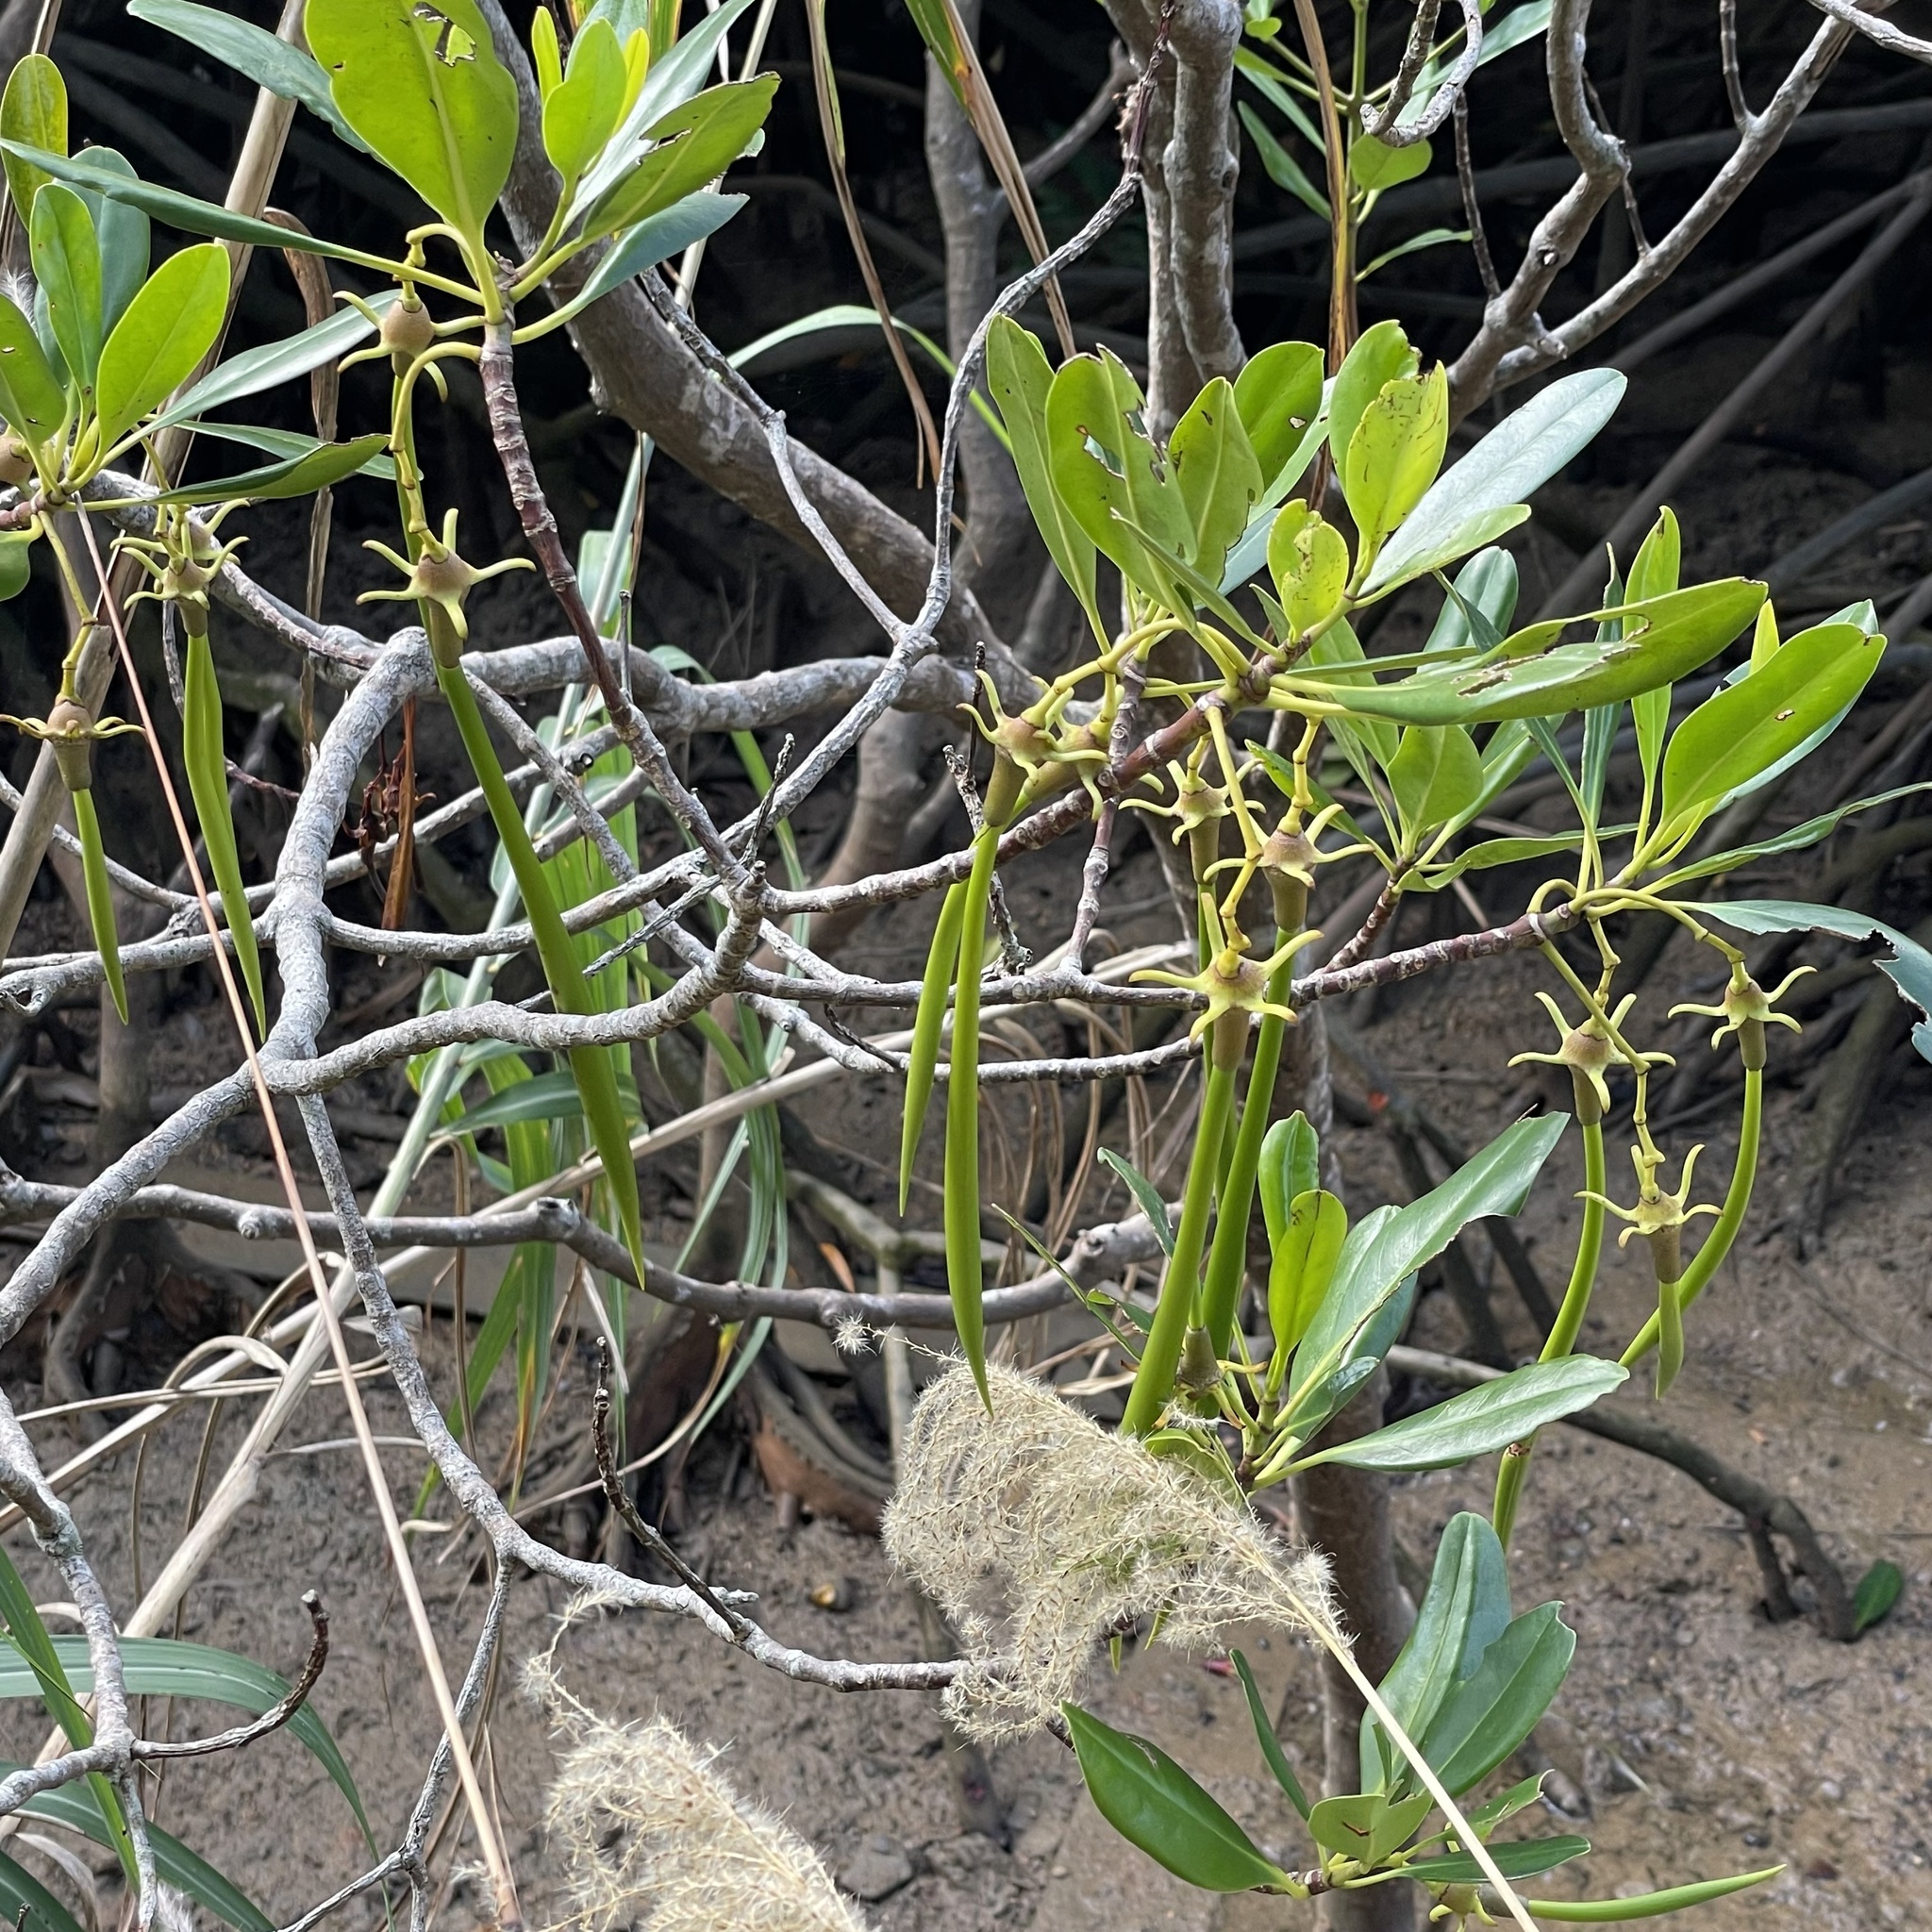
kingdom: Plantae
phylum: Tracheophyta
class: Magnoliopsida
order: Malpighiales
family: Rhizophoraceae
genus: Kandelia
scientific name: Kandelia obovata
